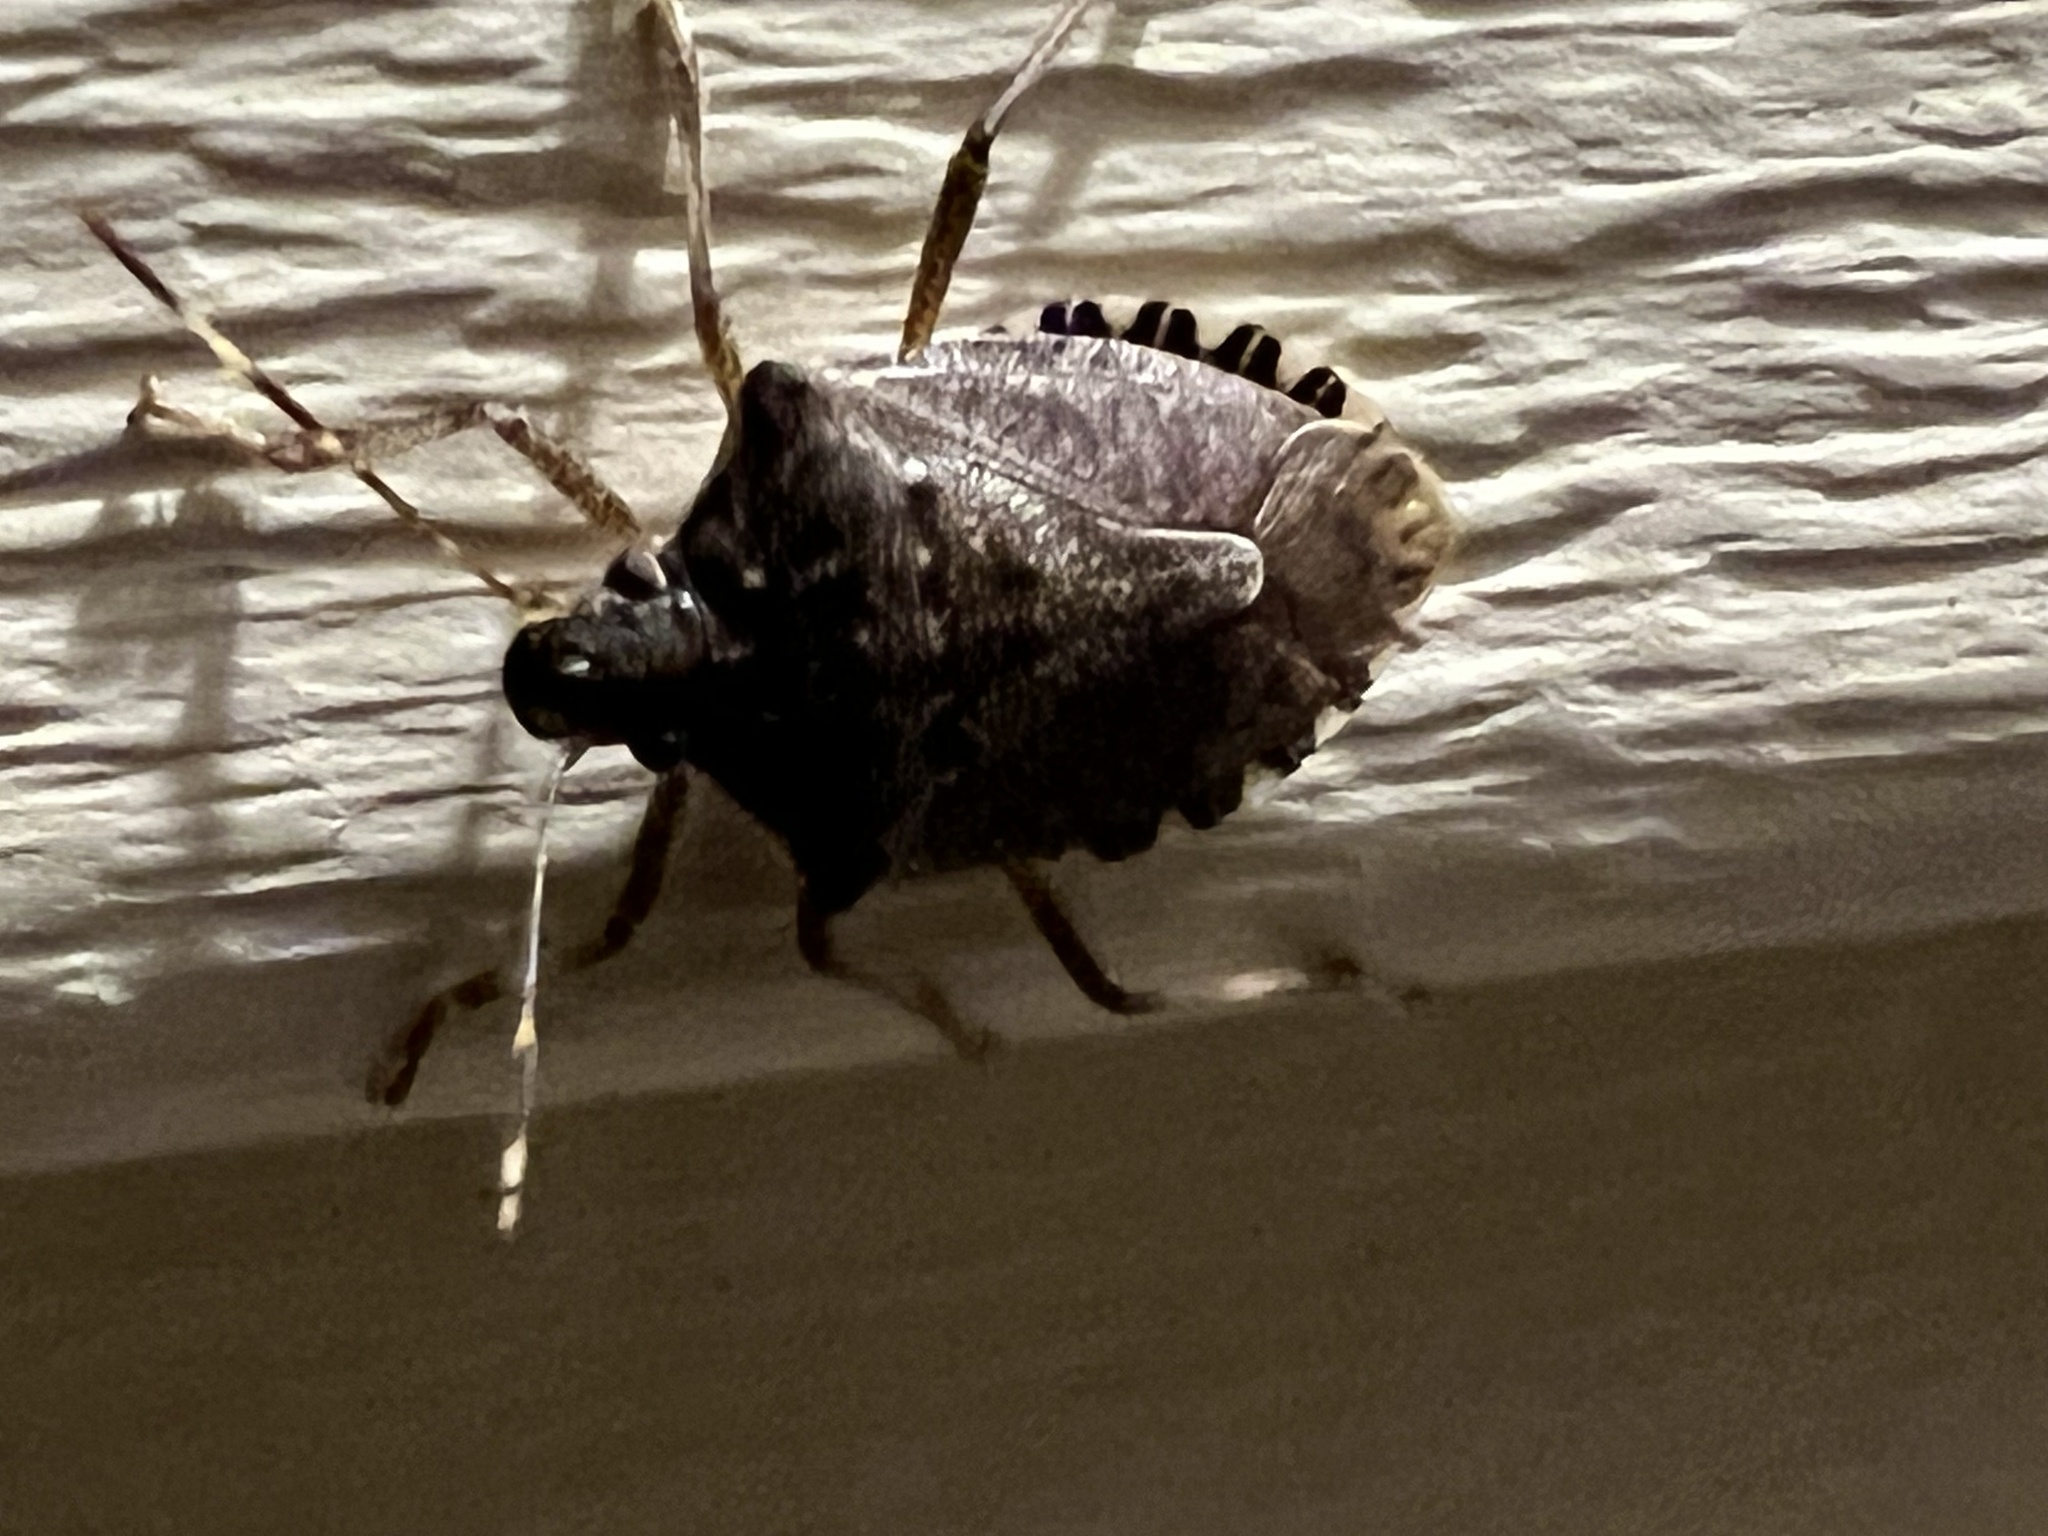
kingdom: Animalia
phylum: Arthropoda
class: Insecta
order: Hemiptera
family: Pentatomidae
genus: Halyomorpha
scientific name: Halyomorpha halys
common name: Brown marmorated stink bug
